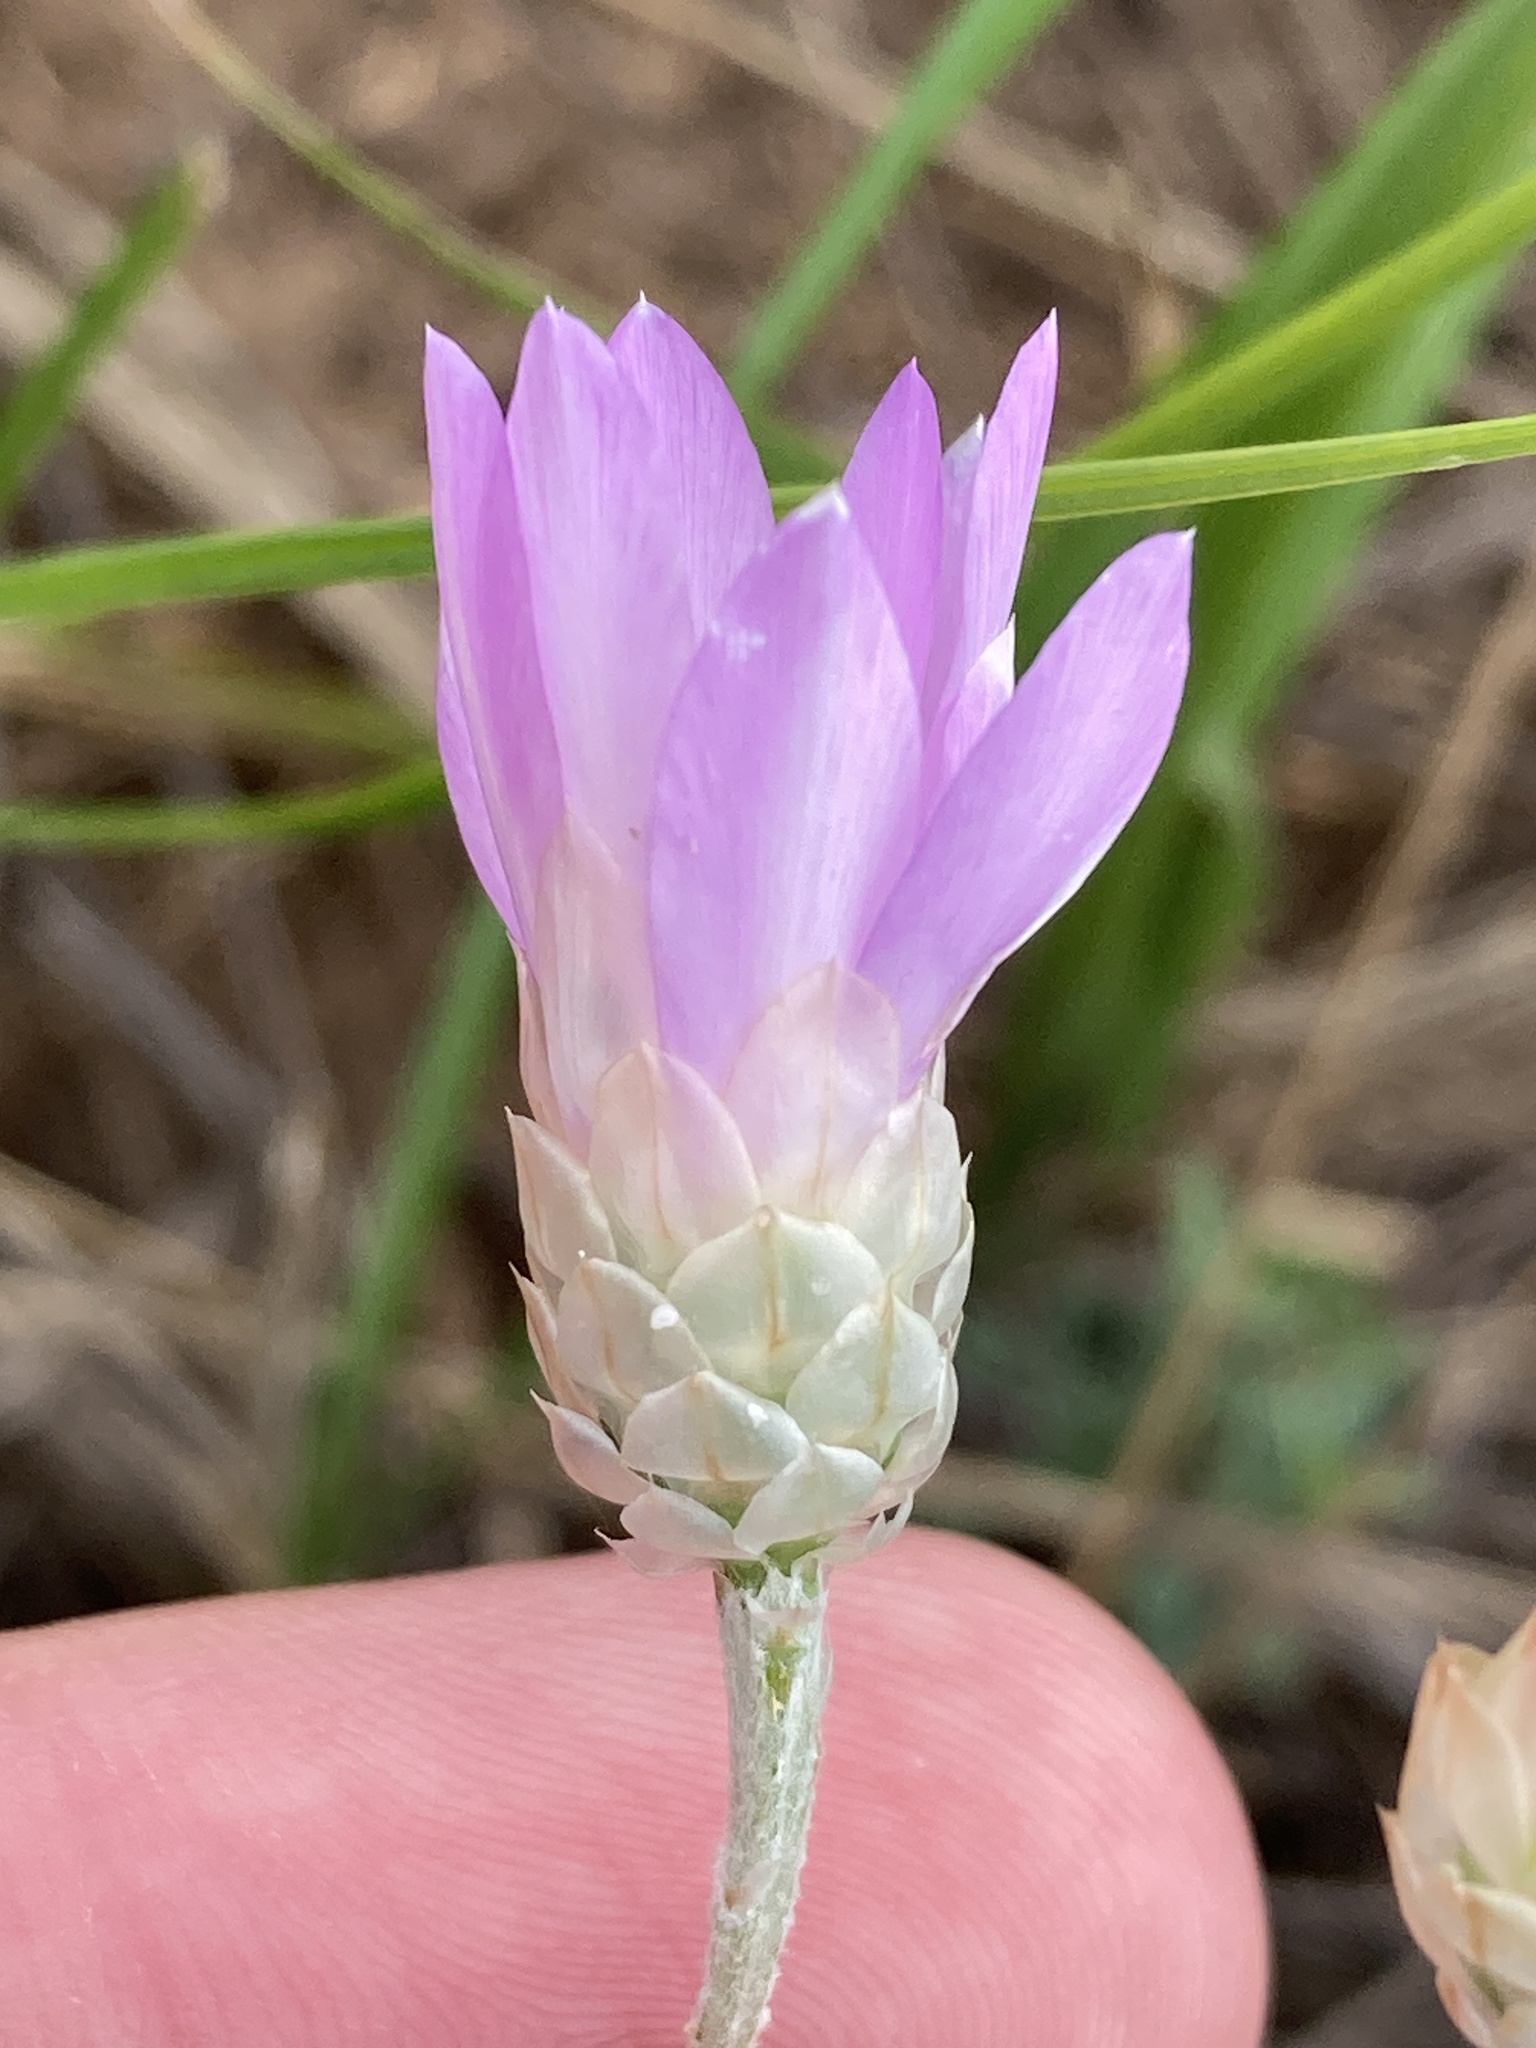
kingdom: Plantae
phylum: Tracheophyta
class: Magnoliopsida
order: Asterales
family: Asteraceae
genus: Xeranthemum
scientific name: Xeranthemum annuum
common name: Immortelle
